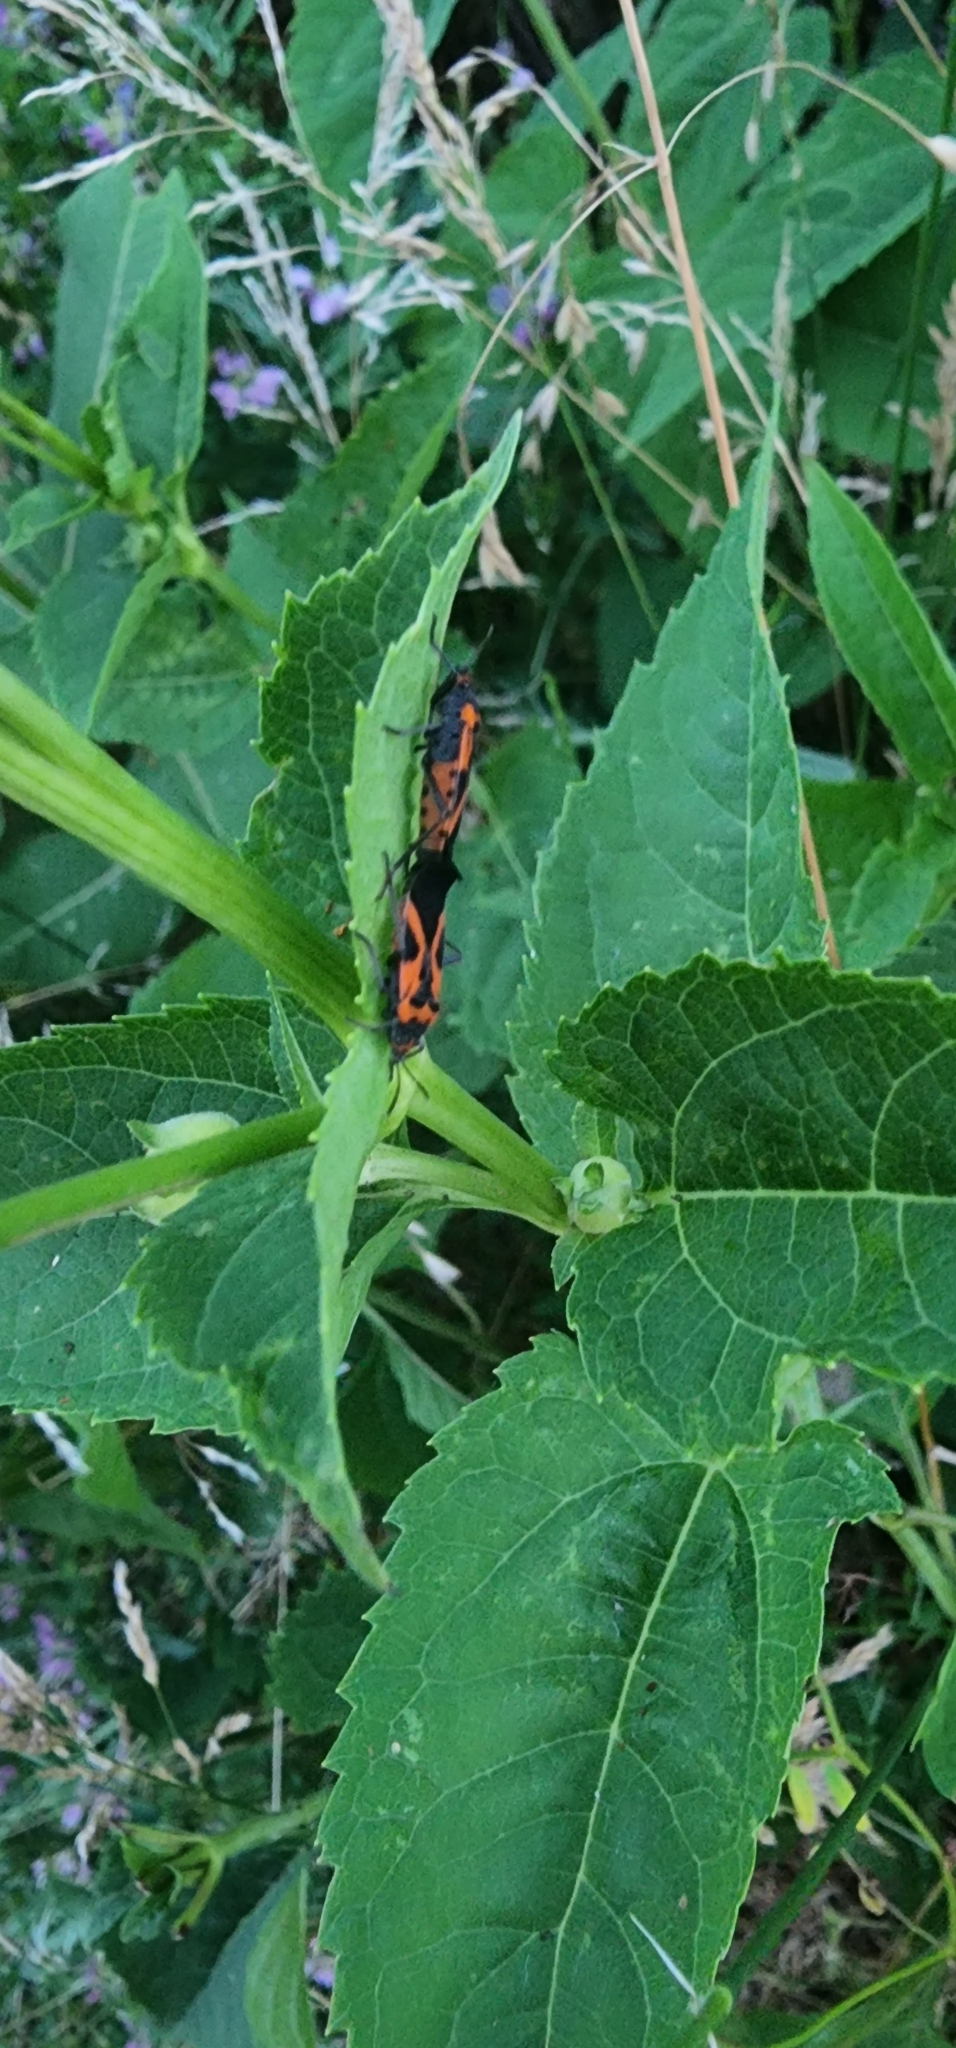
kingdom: Animalia
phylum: Arthropoda
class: Insecta
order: Hemiptera
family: Lygaeidae
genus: Lygaeus
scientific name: Lygaeus turcicus
